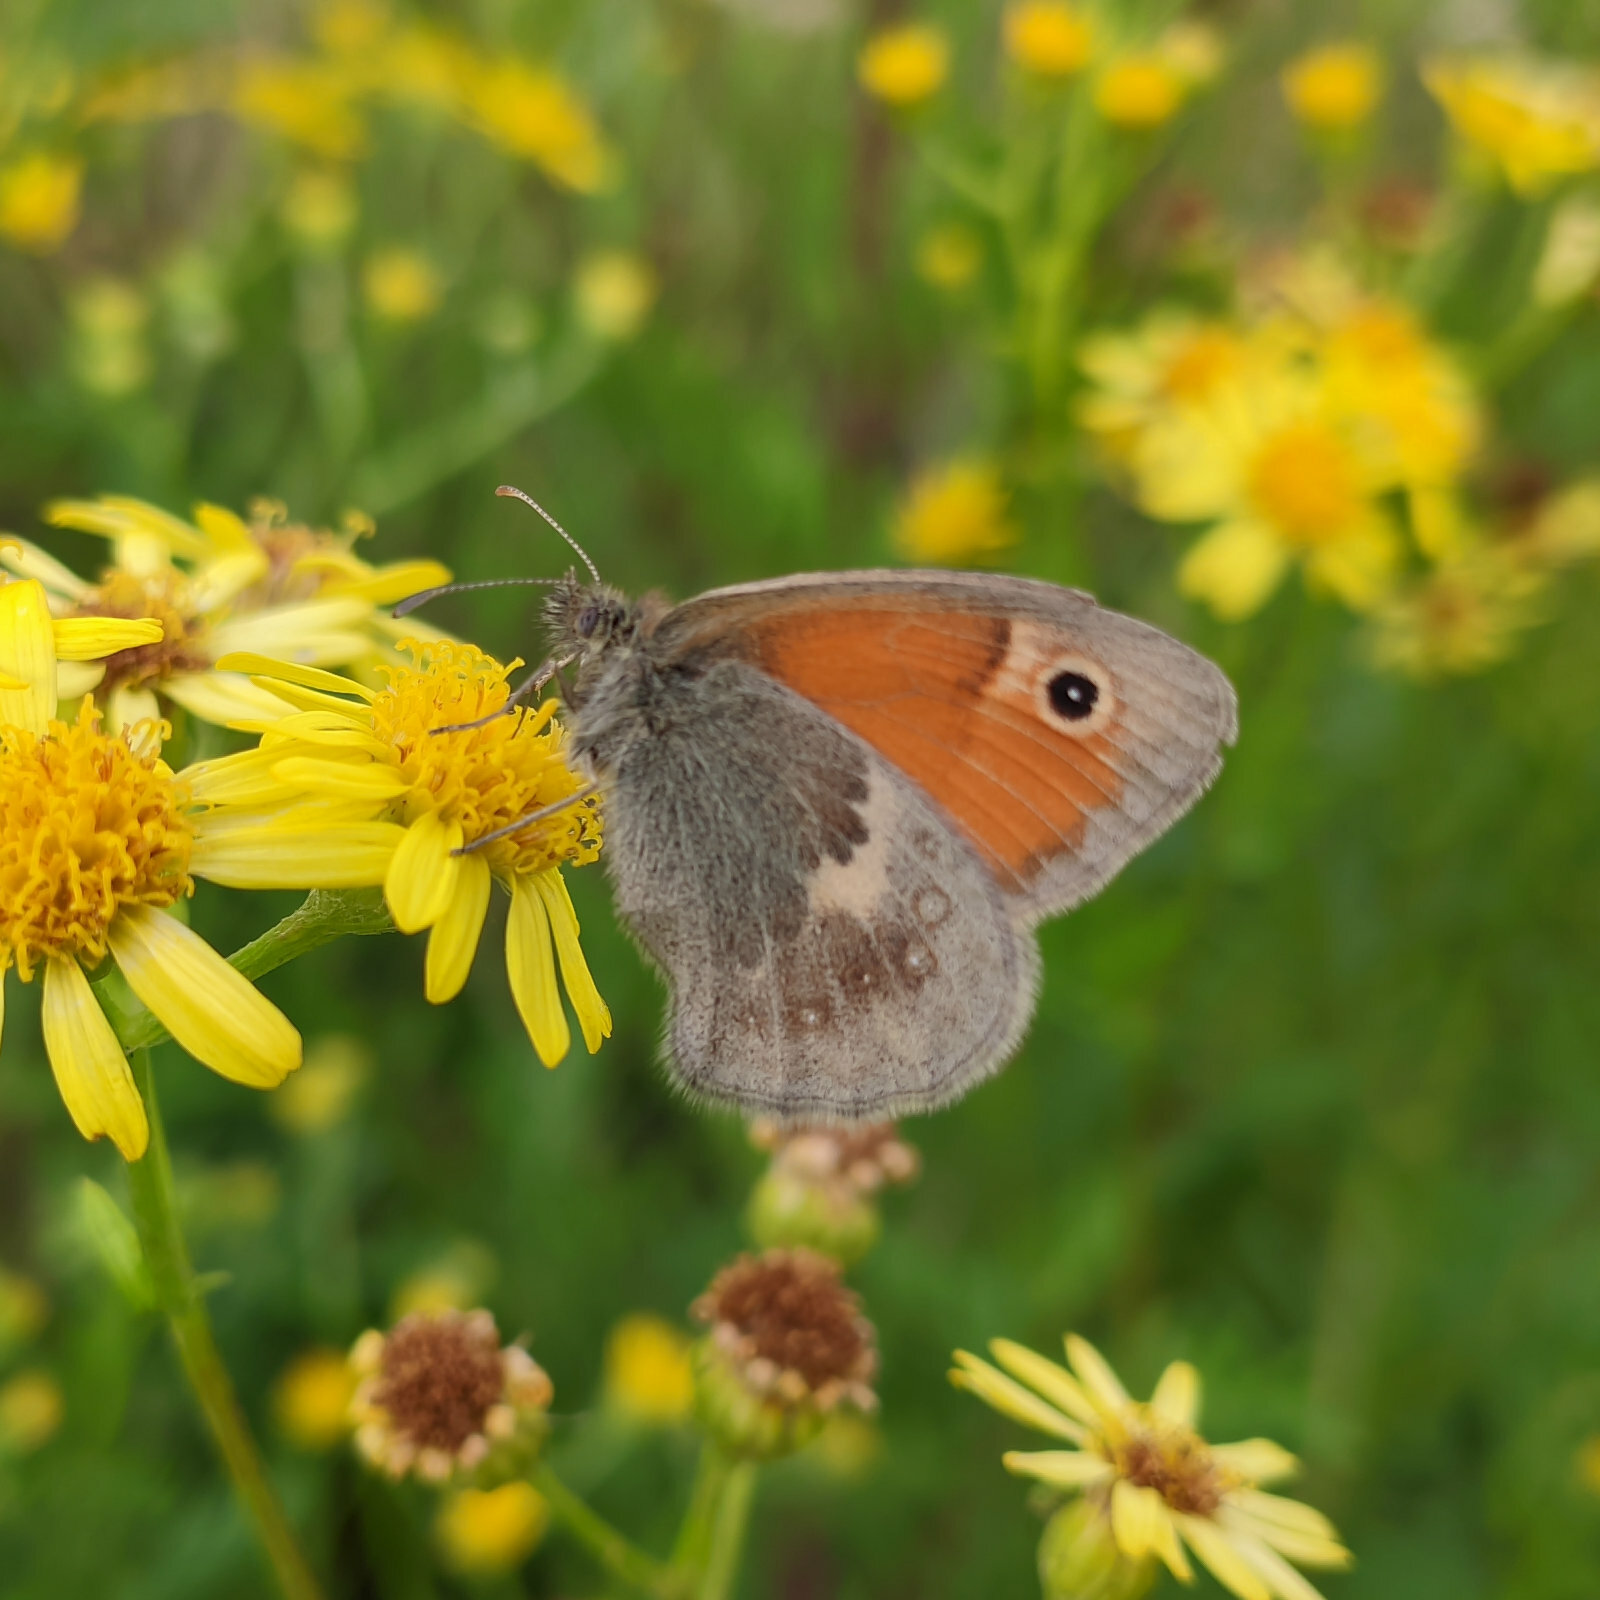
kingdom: Animalia
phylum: Arthropoda
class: Insecta
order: Lepidoptera
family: Nymphalidae
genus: Coenonympha
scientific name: Coenonympha pamphilus
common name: Small heath
